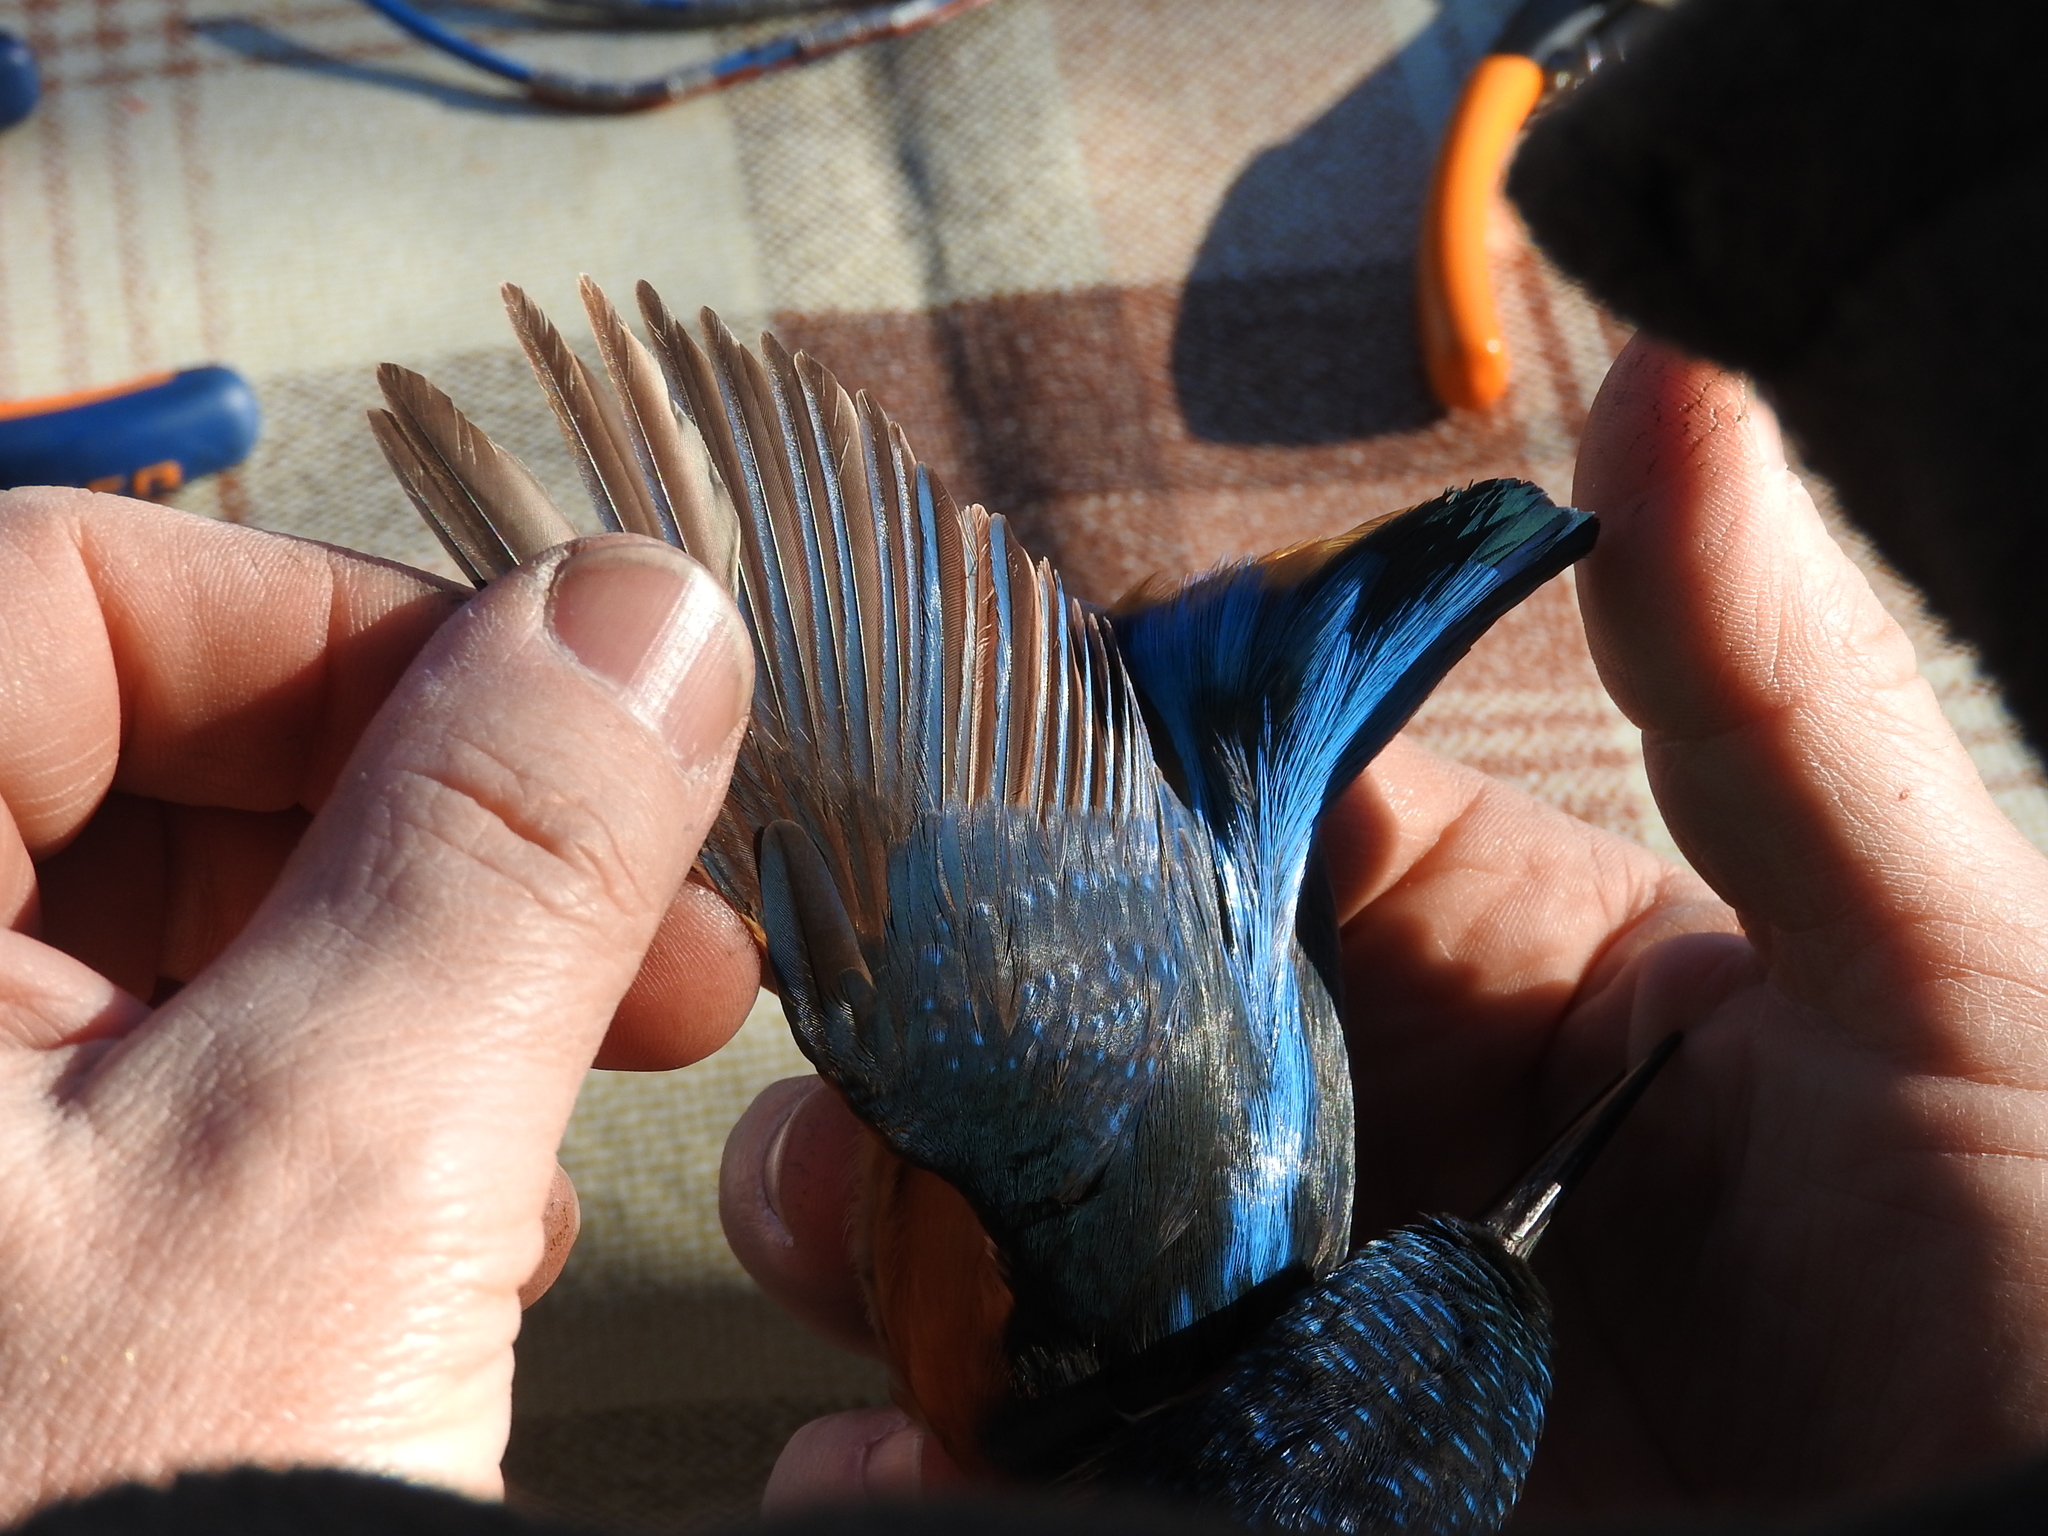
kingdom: Animalia
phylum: Chordata
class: Aves
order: Coraciiformes
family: Alcedinidae
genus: Alcedo
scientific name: Alcedo atthis
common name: Common kingfisher
